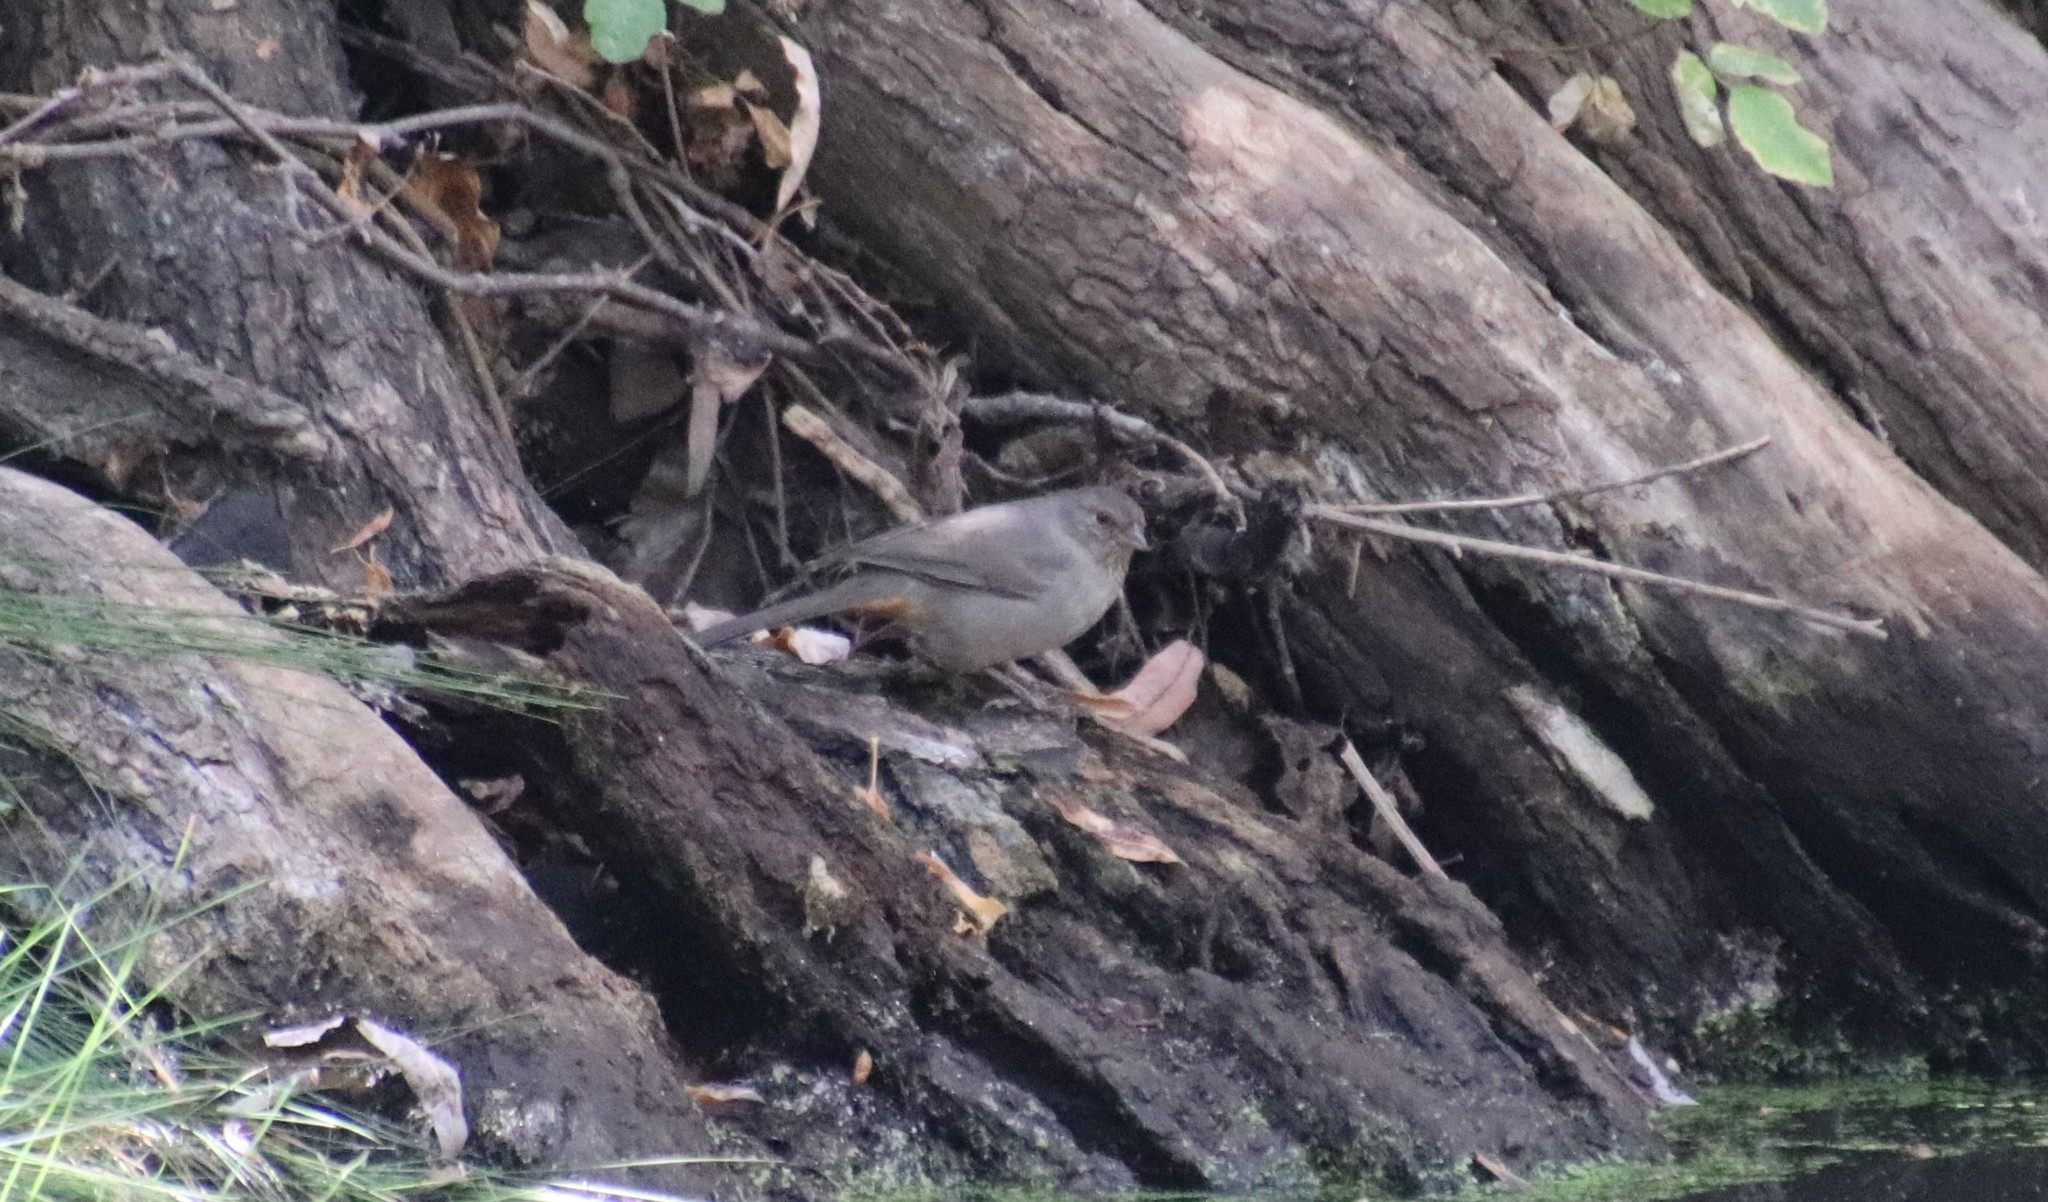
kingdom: Animalia
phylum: Chordata
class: Aves
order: Passeriformes
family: Passerellidae
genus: Melozone
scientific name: Melozone crissalis
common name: California towhee
